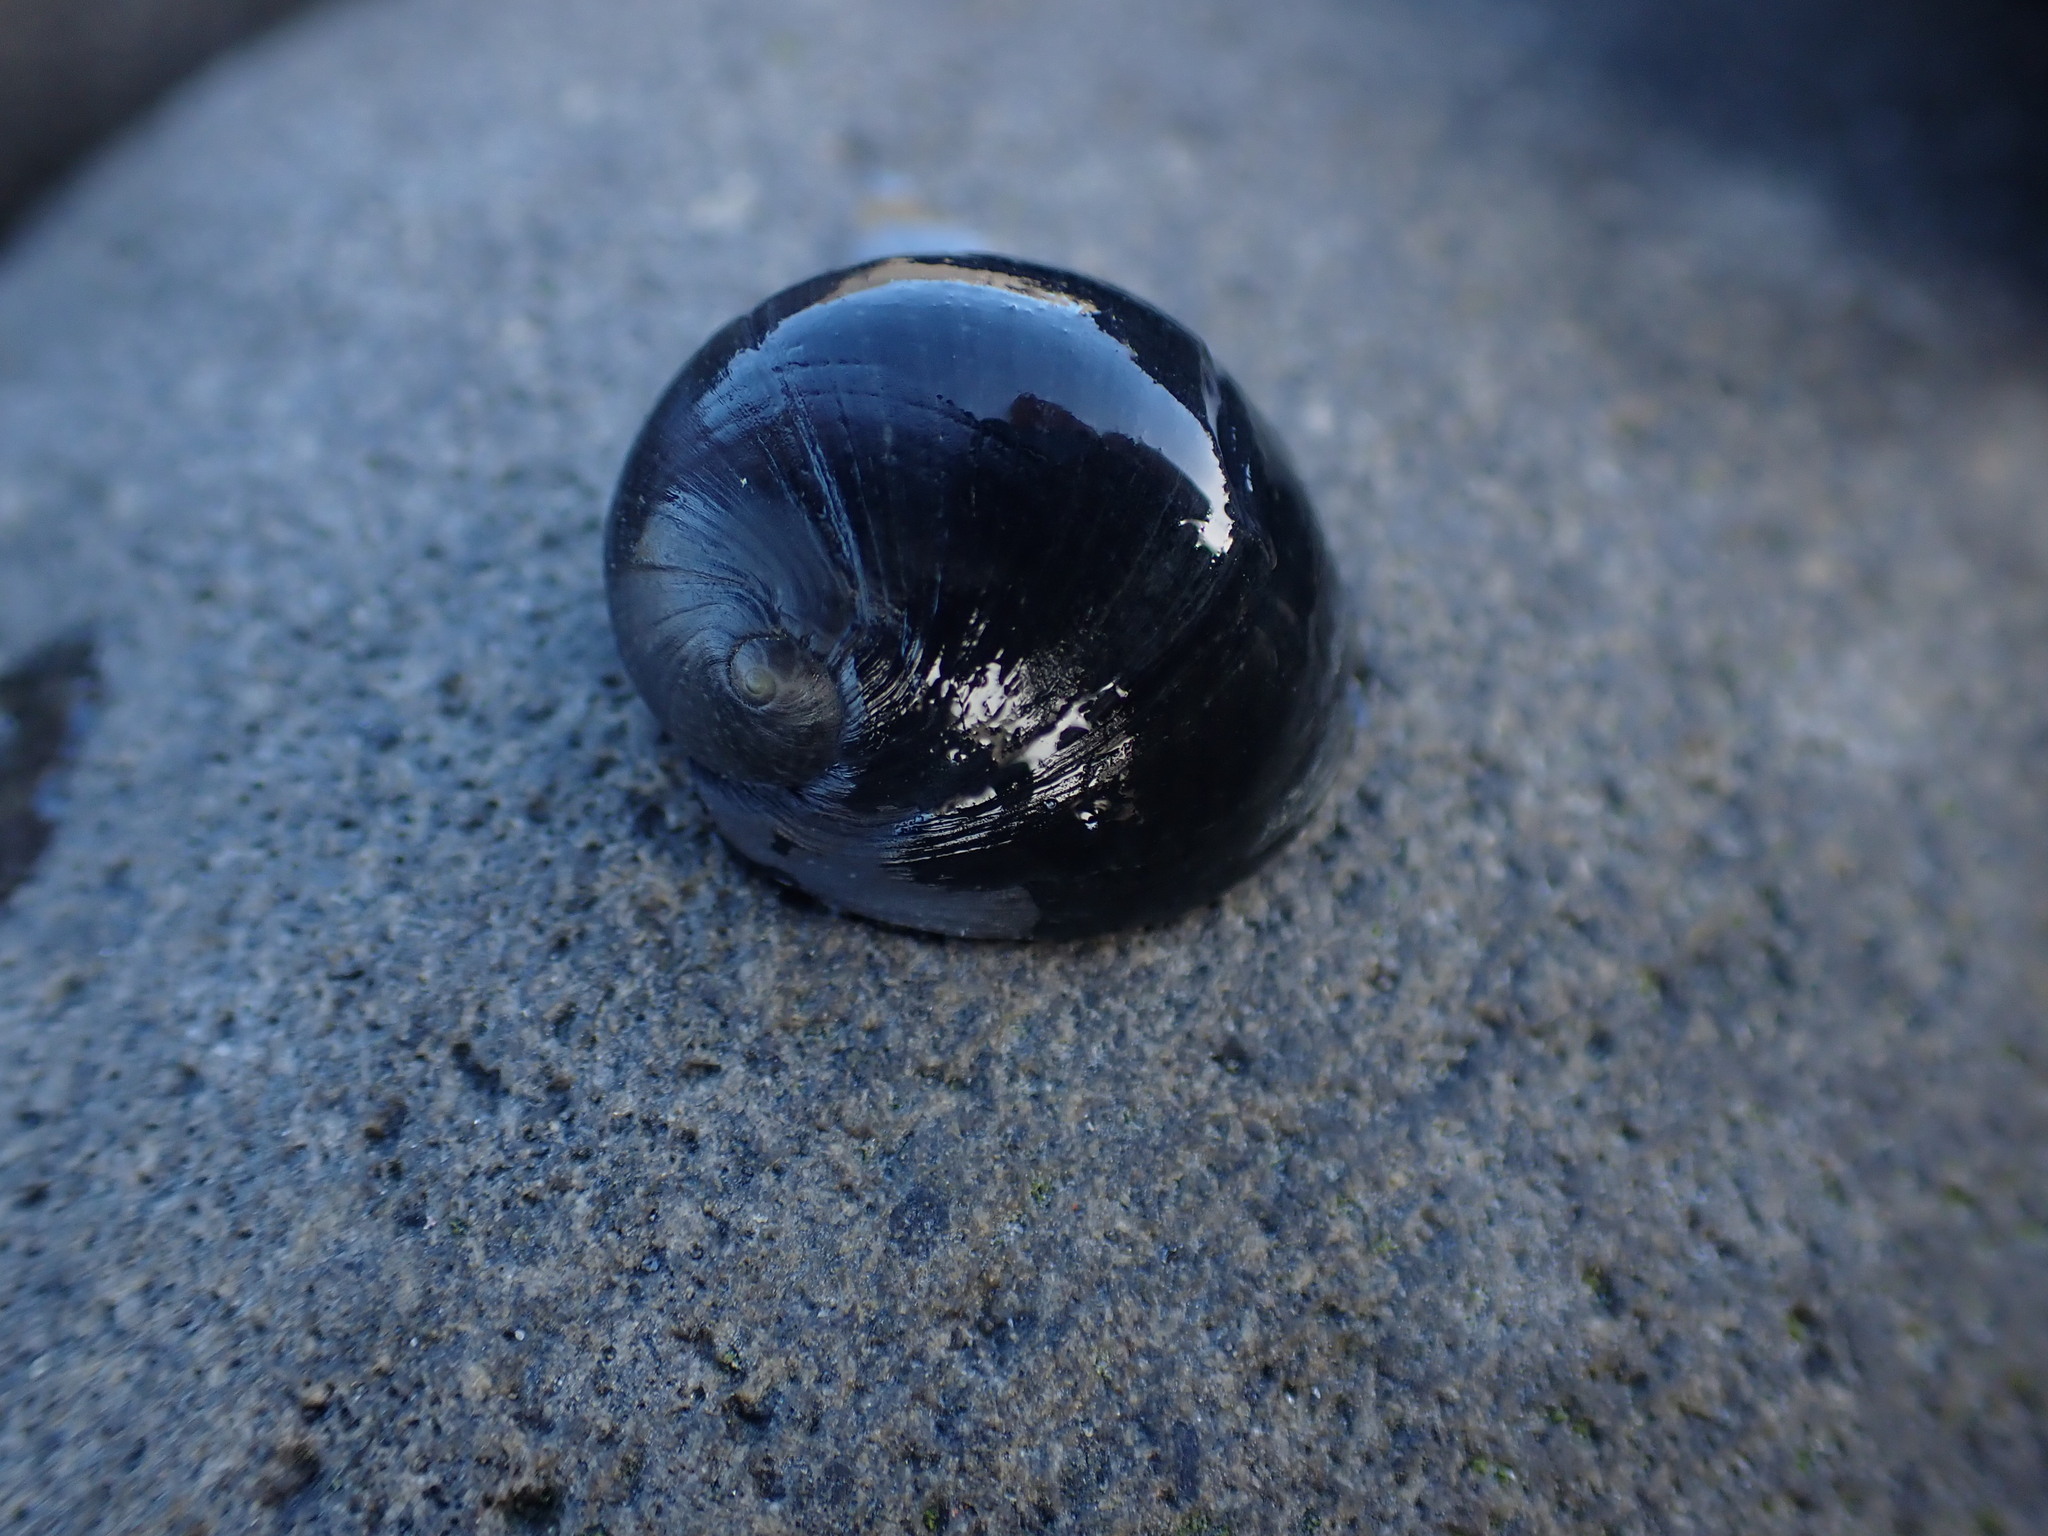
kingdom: Animalia
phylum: Mollusca
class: Gastropoda
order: Cycloneritida
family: Neritidae
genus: Nerita
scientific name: Nerita melanotragus
